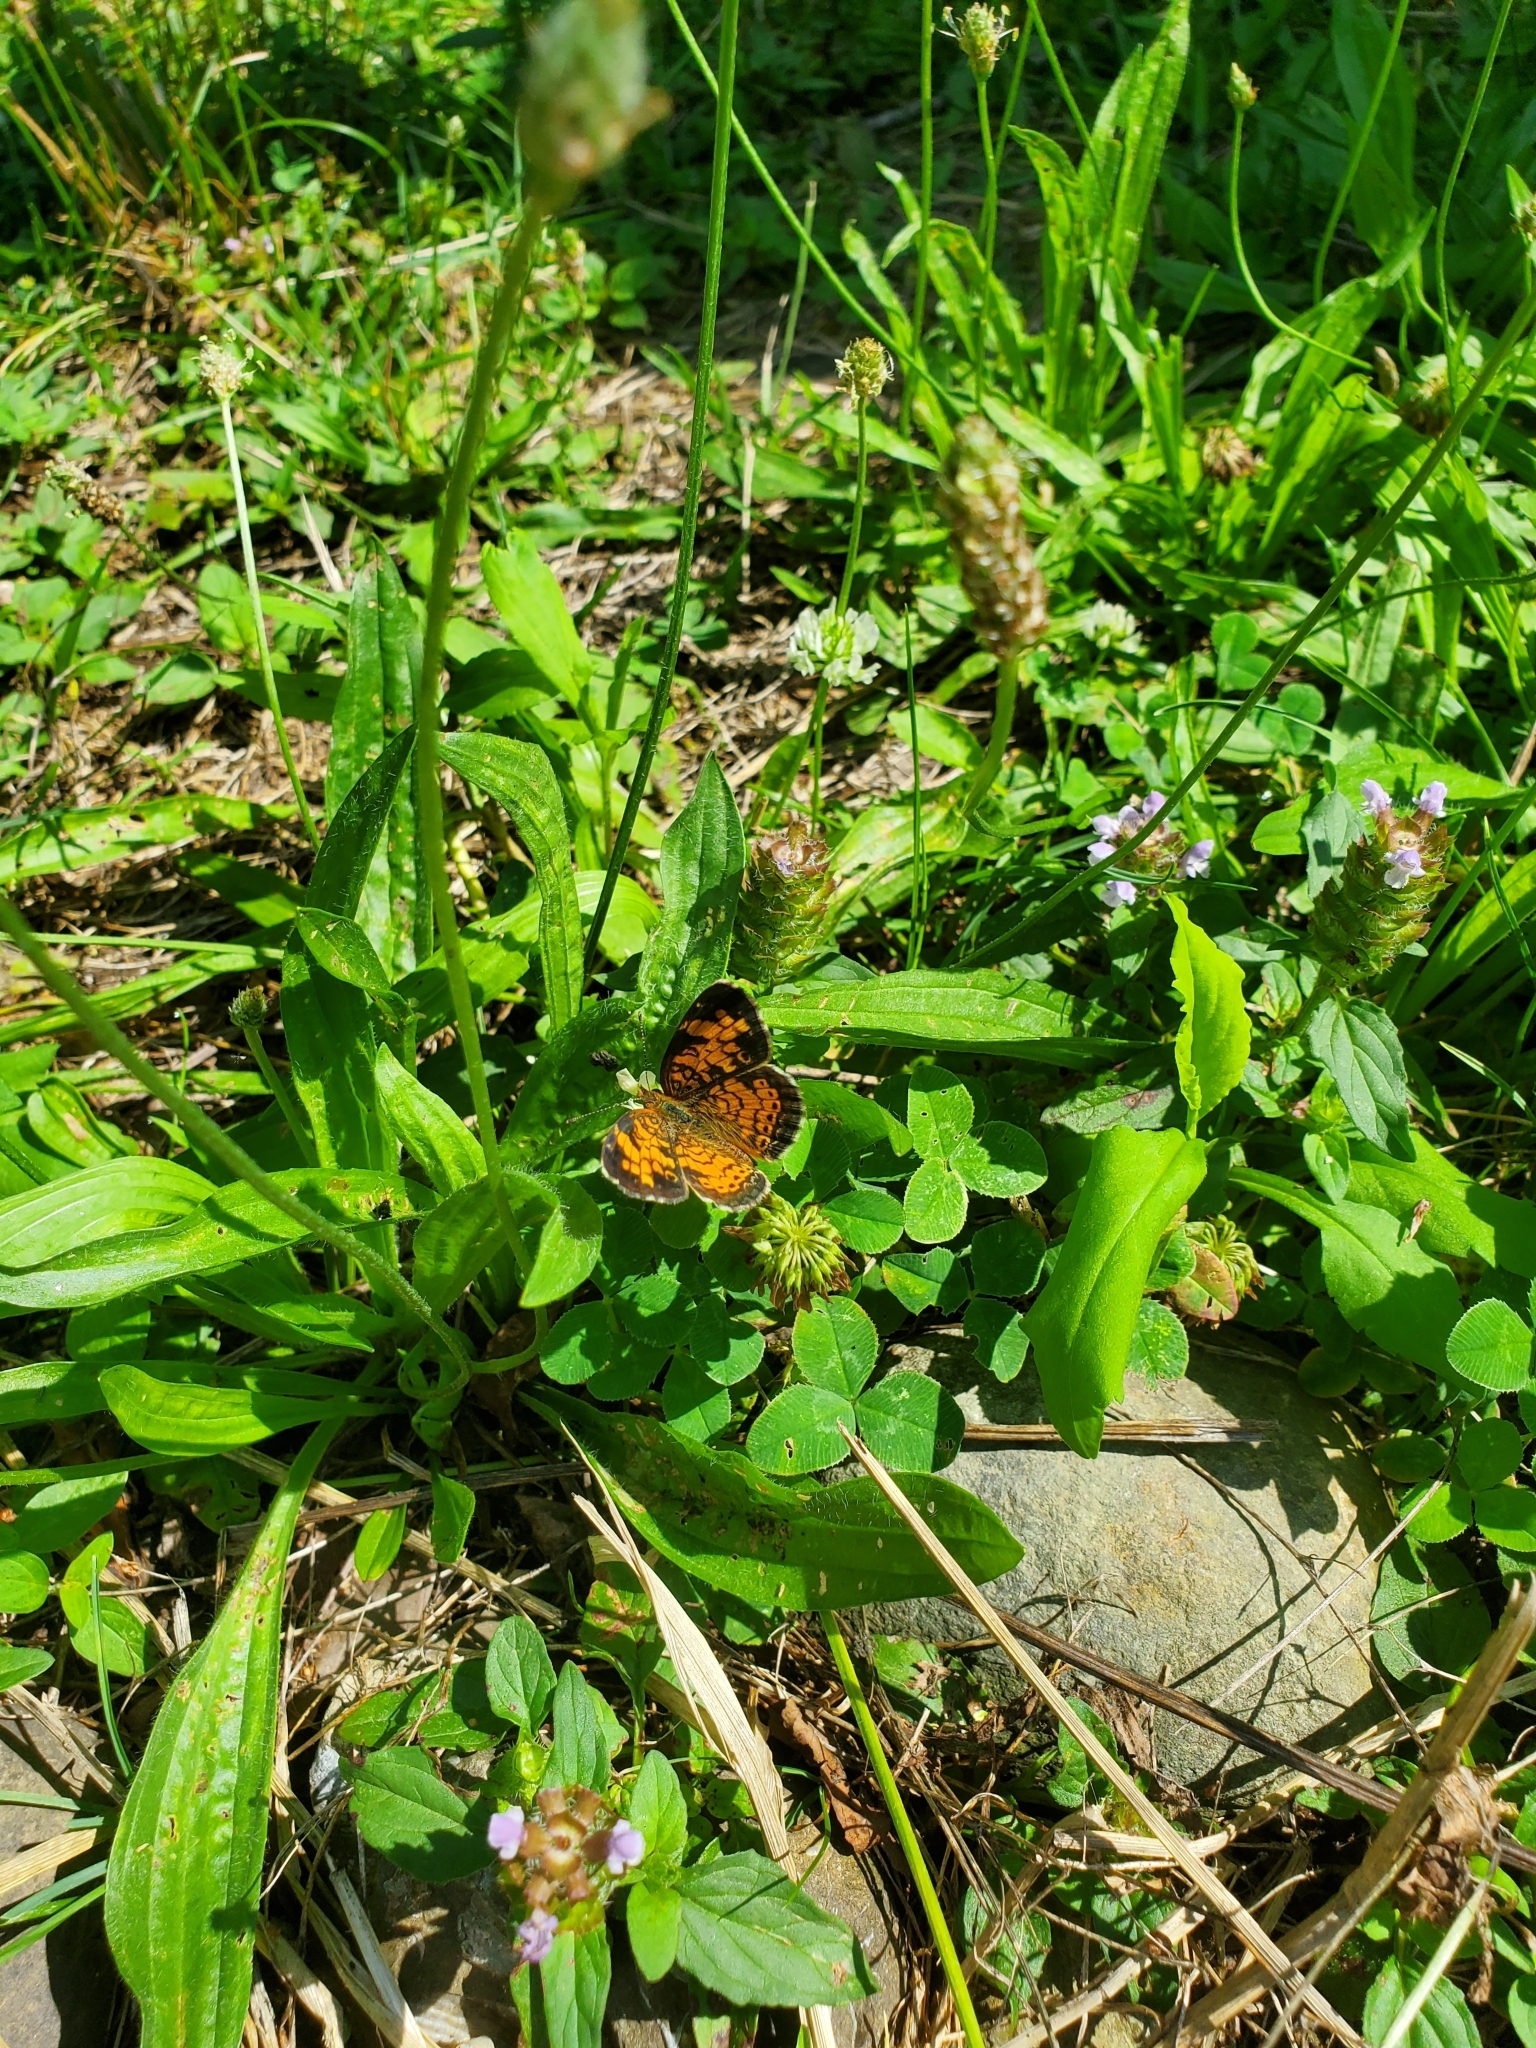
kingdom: Animalia
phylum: Arthropoda
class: Insecta
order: Lepidoptera
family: Nymphalidae
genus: Phyciodes
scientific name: Phyciodes tharos
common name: Pearl crescent
